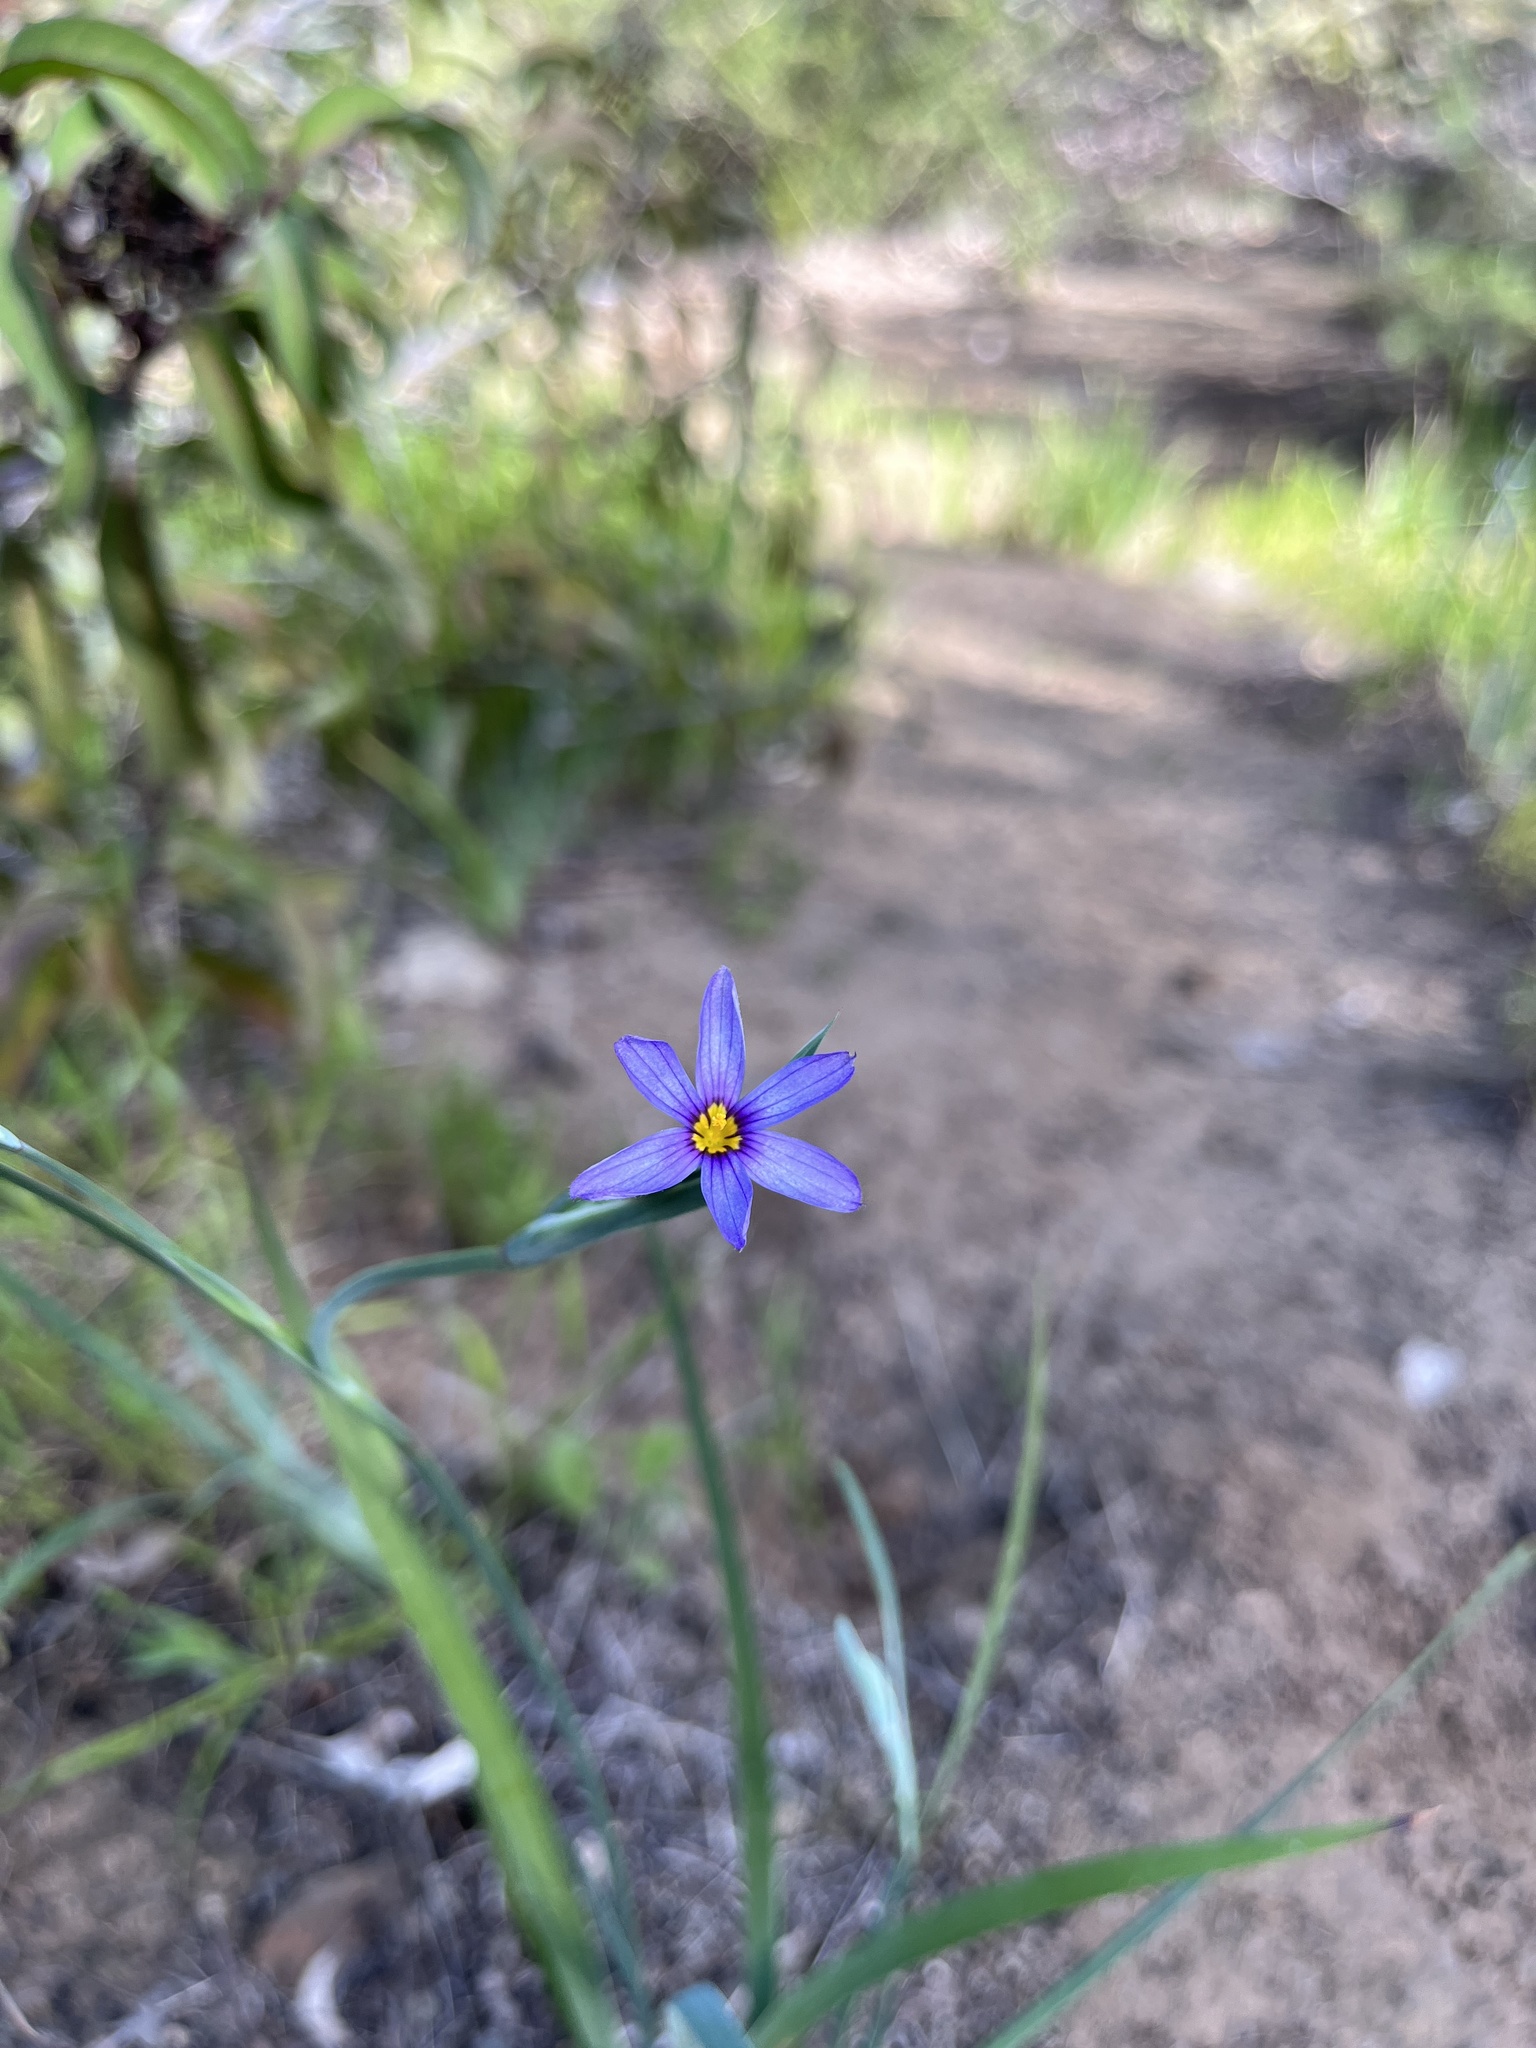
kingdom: Plantae
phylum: Tracheophyta
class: Liliopsida
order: Asparagales
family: Iridaceae
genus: Sisyrinchium
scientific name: Sisyrinchium bellum
